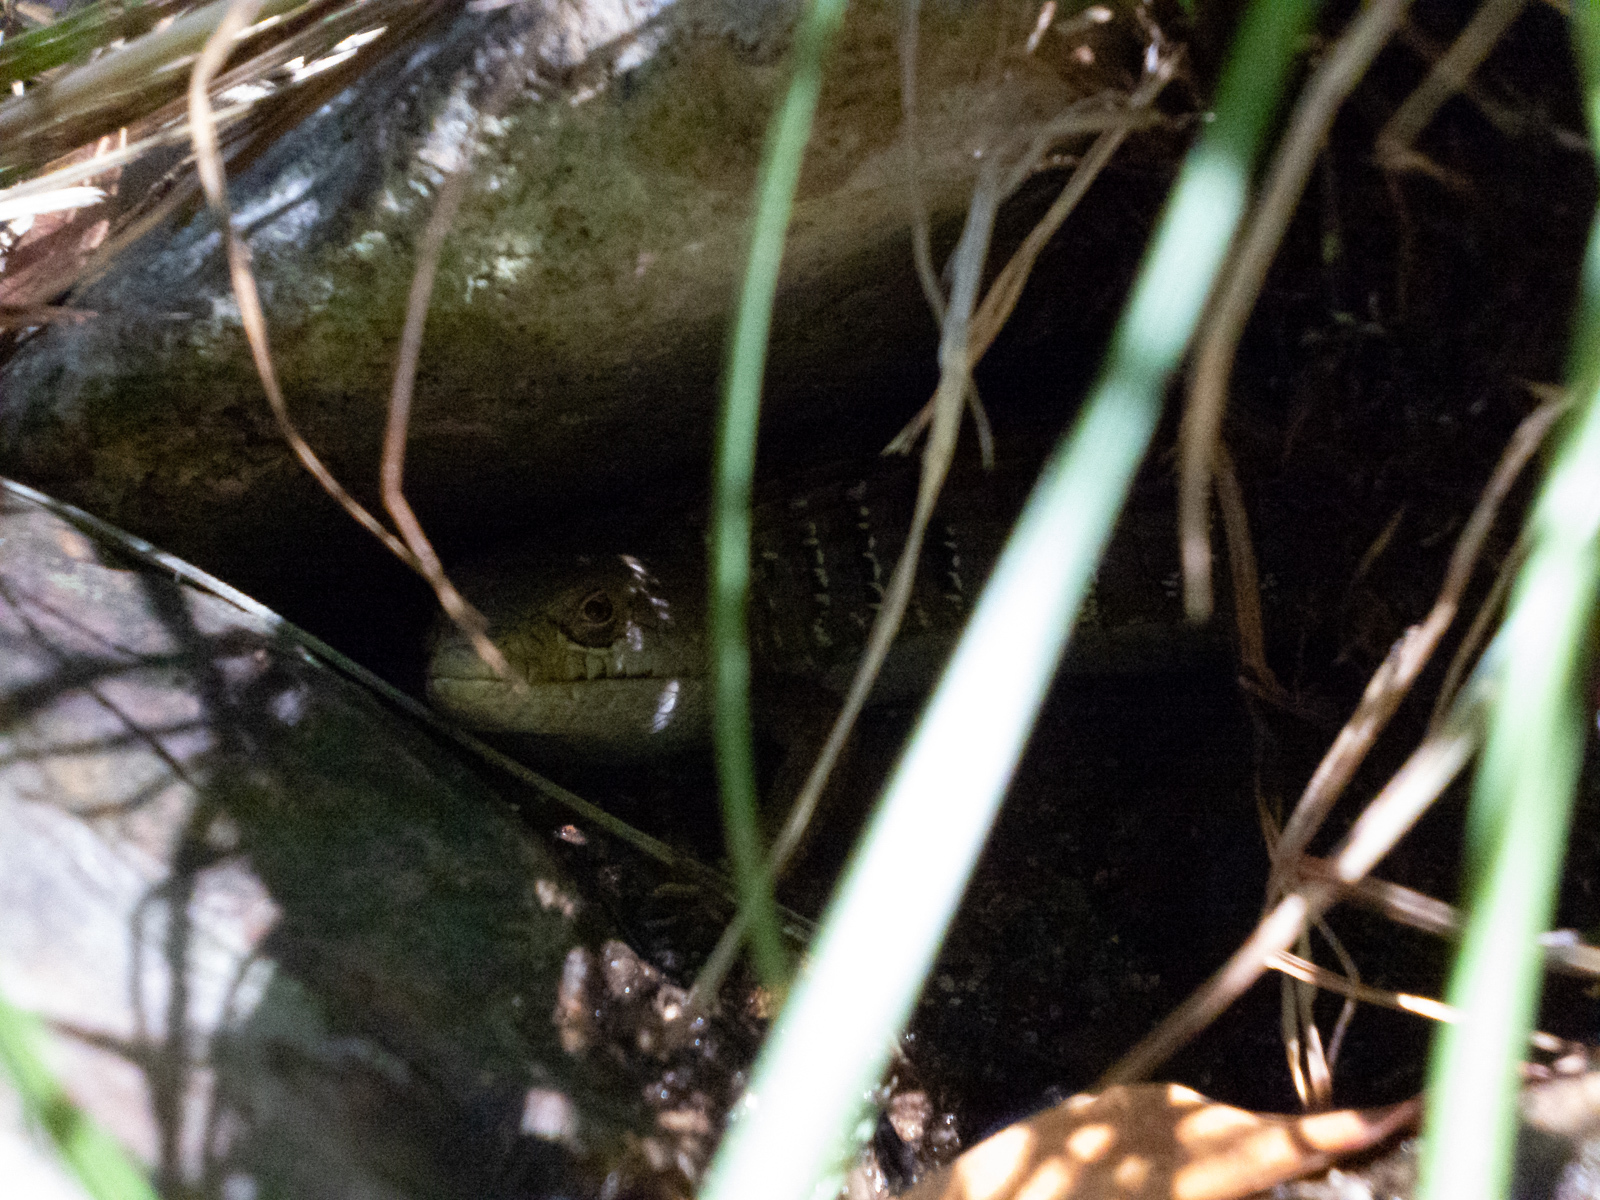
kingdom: Animalia
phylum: Chordata
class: Squamata
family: Anguidae
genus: Elgaria
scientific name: Elgaria multicarinata
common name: Southern alligator lizard
